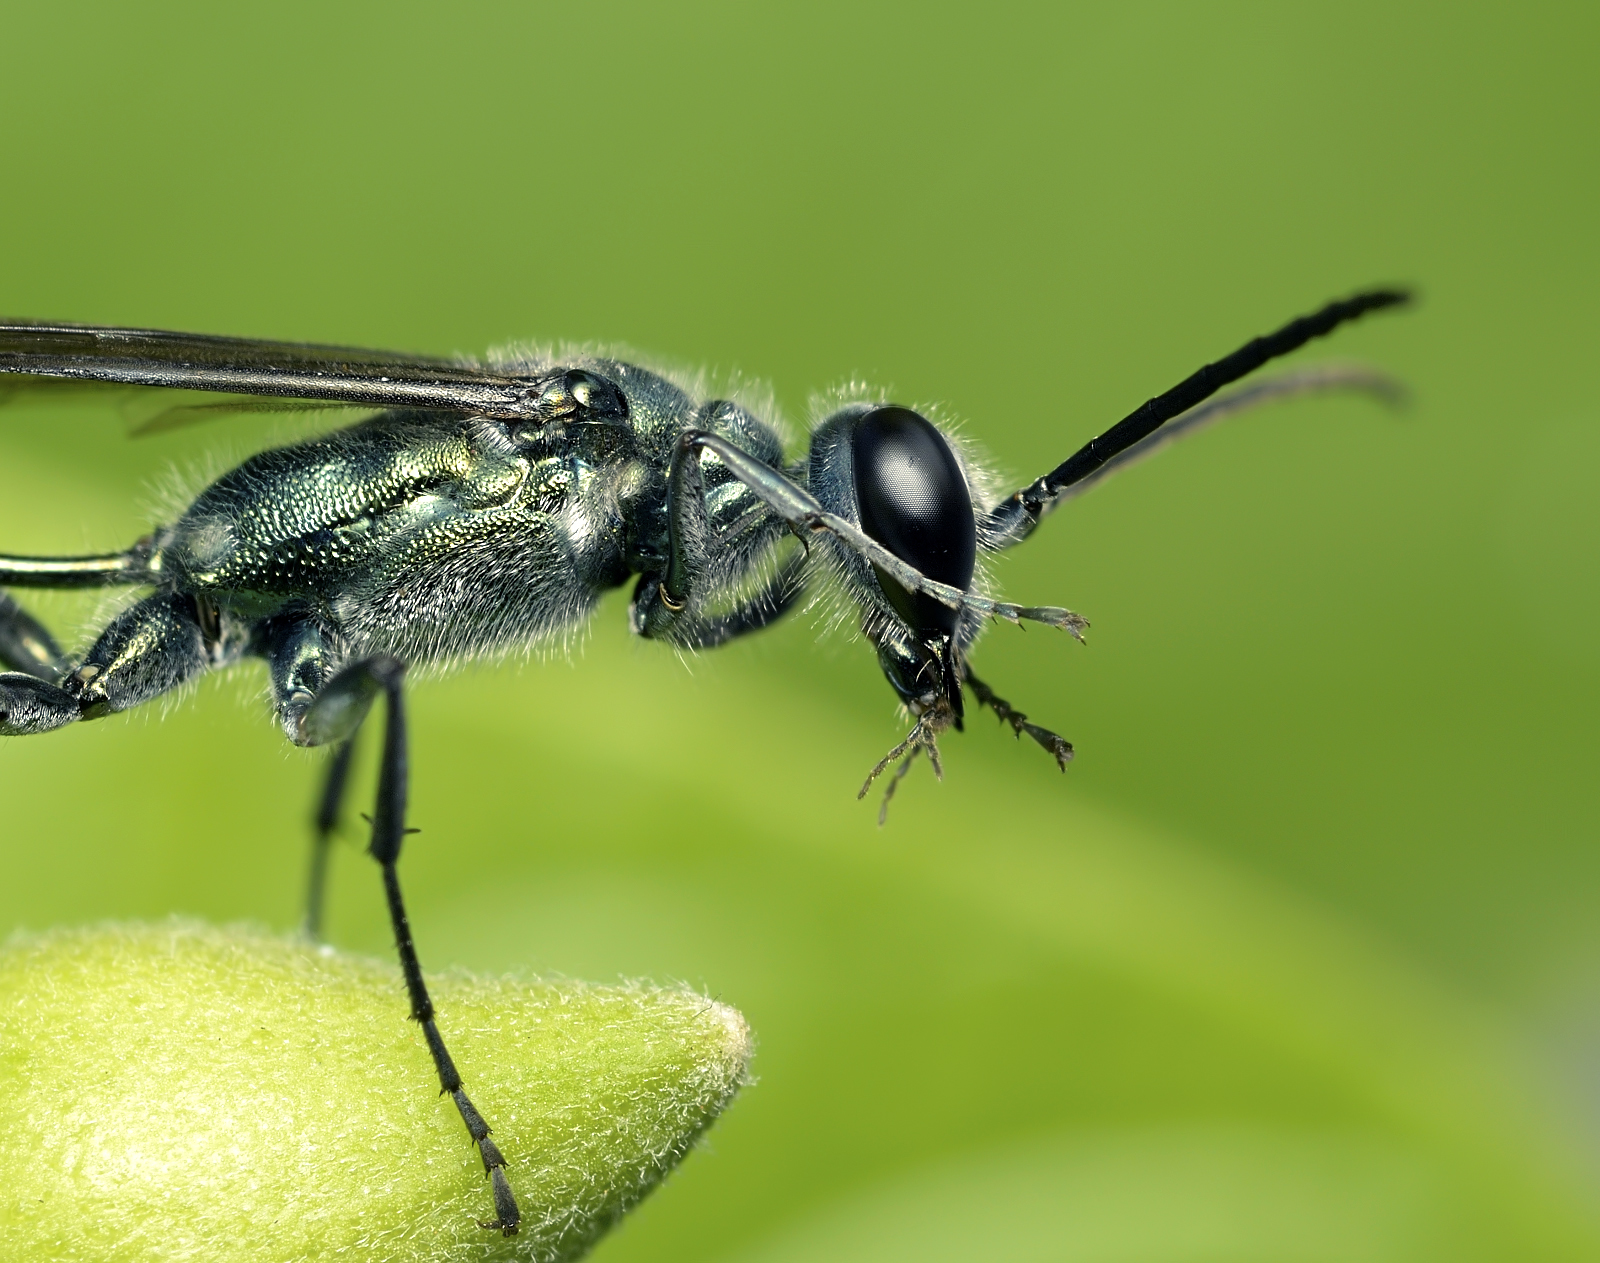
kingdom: Animalia
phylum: Arthropoda
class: Insecta
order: Hymenoptera
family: Sphecidae
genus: Chalybion
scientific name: Chalybion bengalense
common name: Mud dauber
